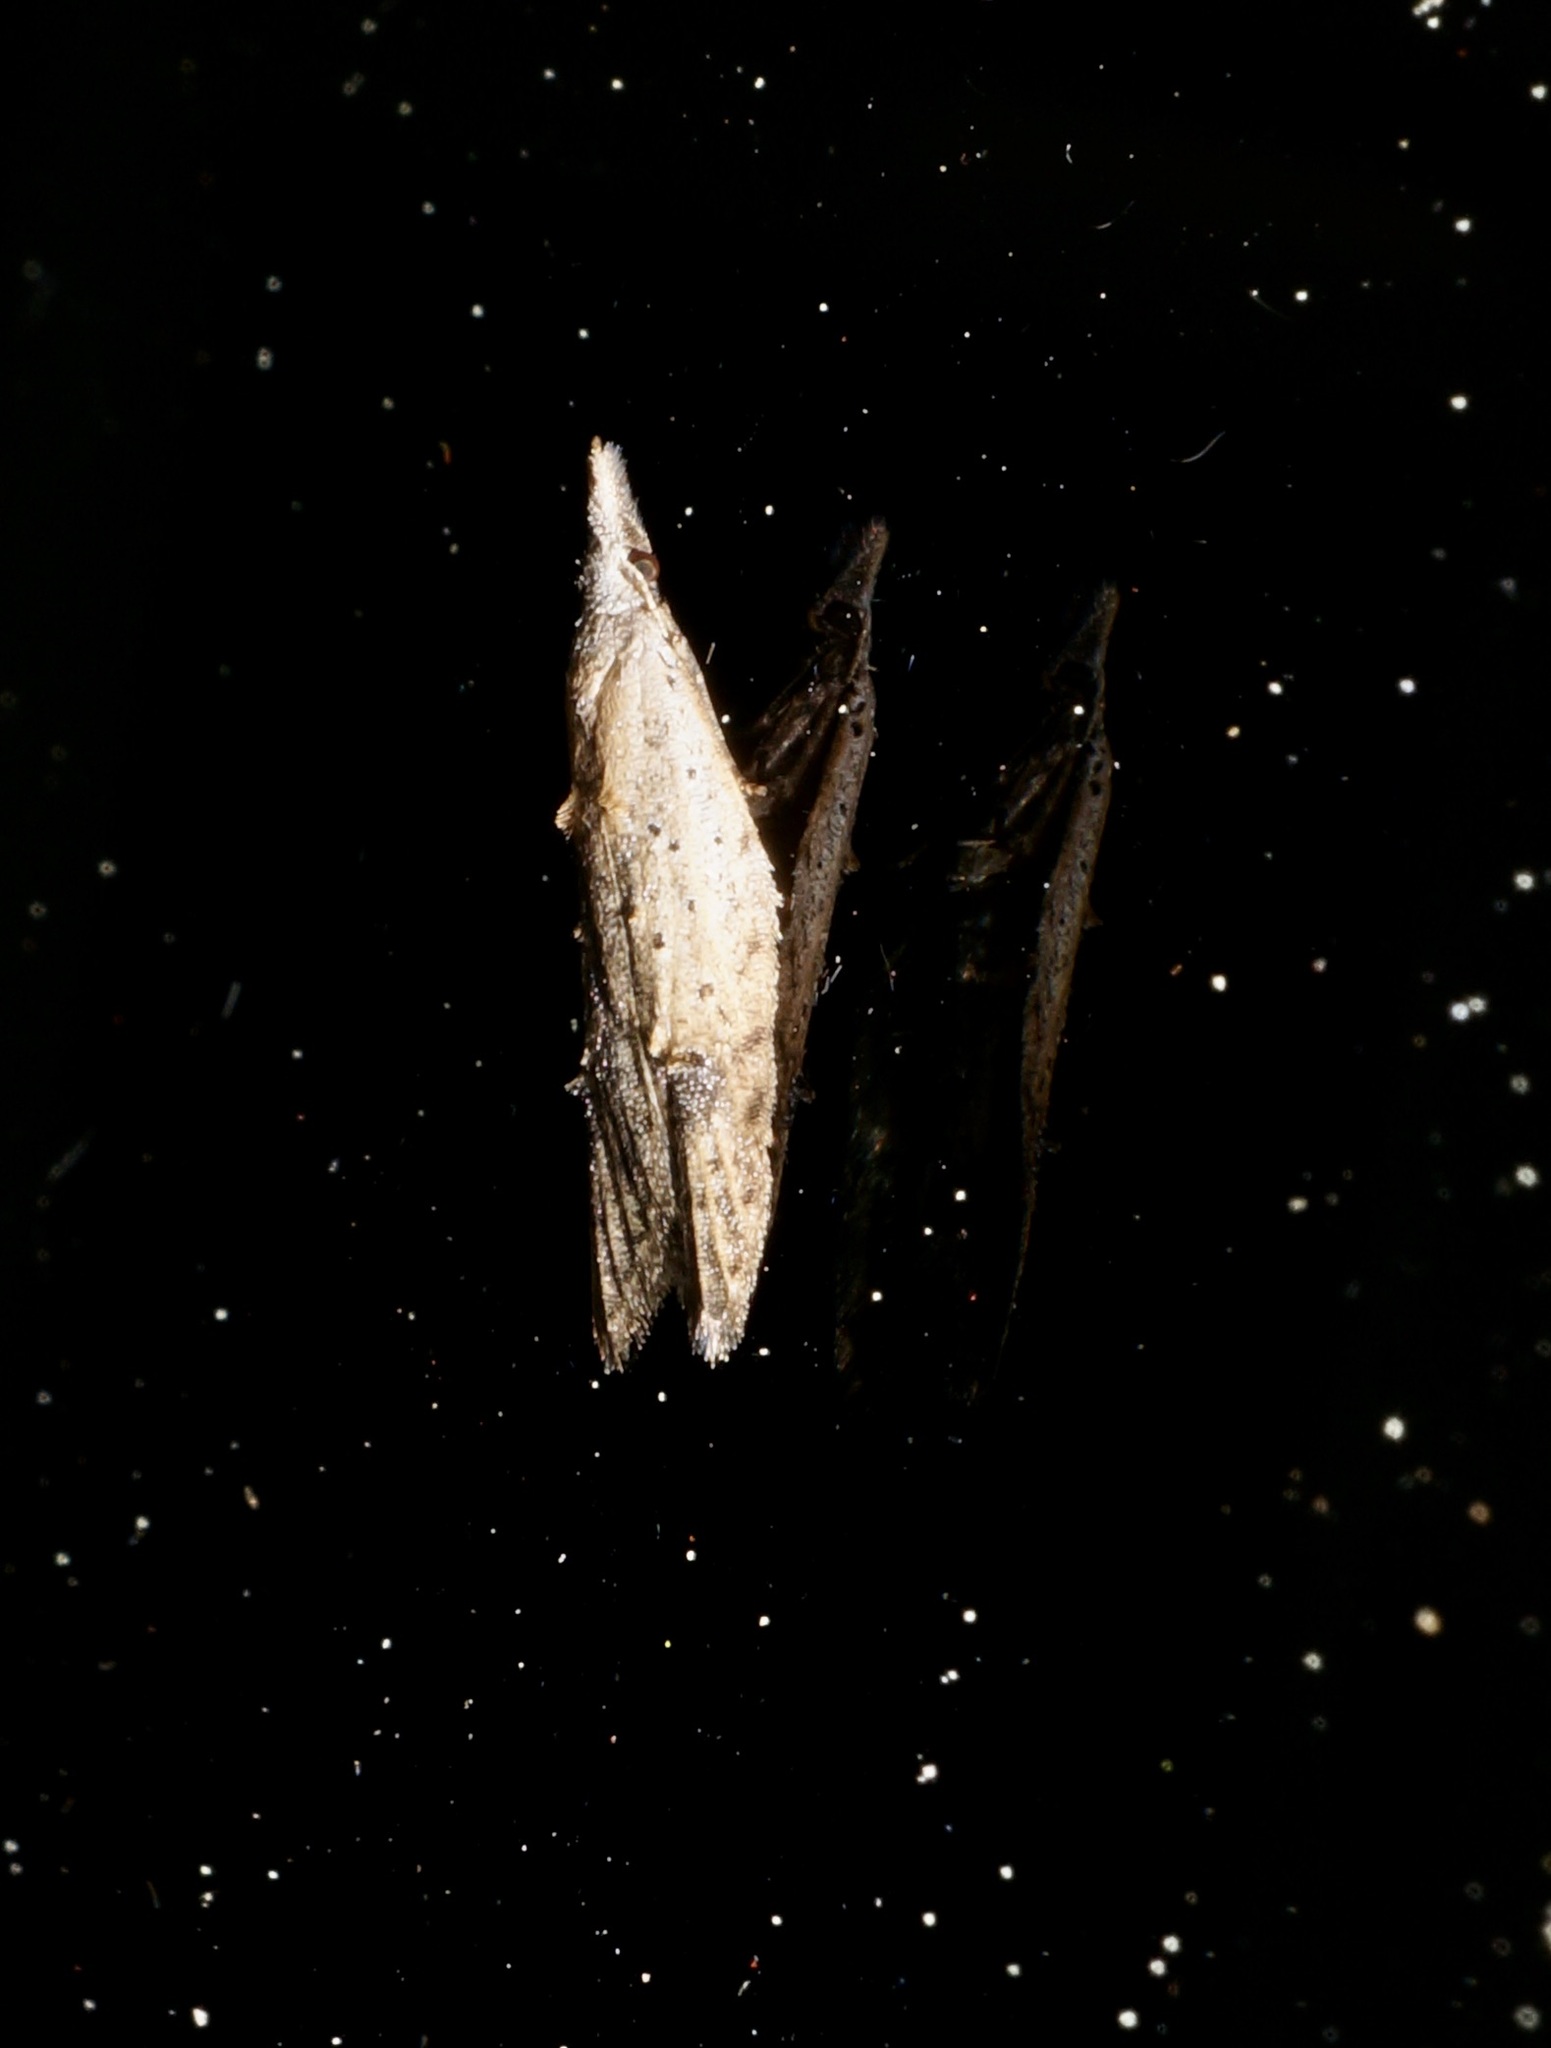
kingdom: Animalia
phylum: Arthropoda
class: Insecta
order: Lepidoptera
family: Carposinidae
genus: Carposina
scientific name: Carposina rubophaga
